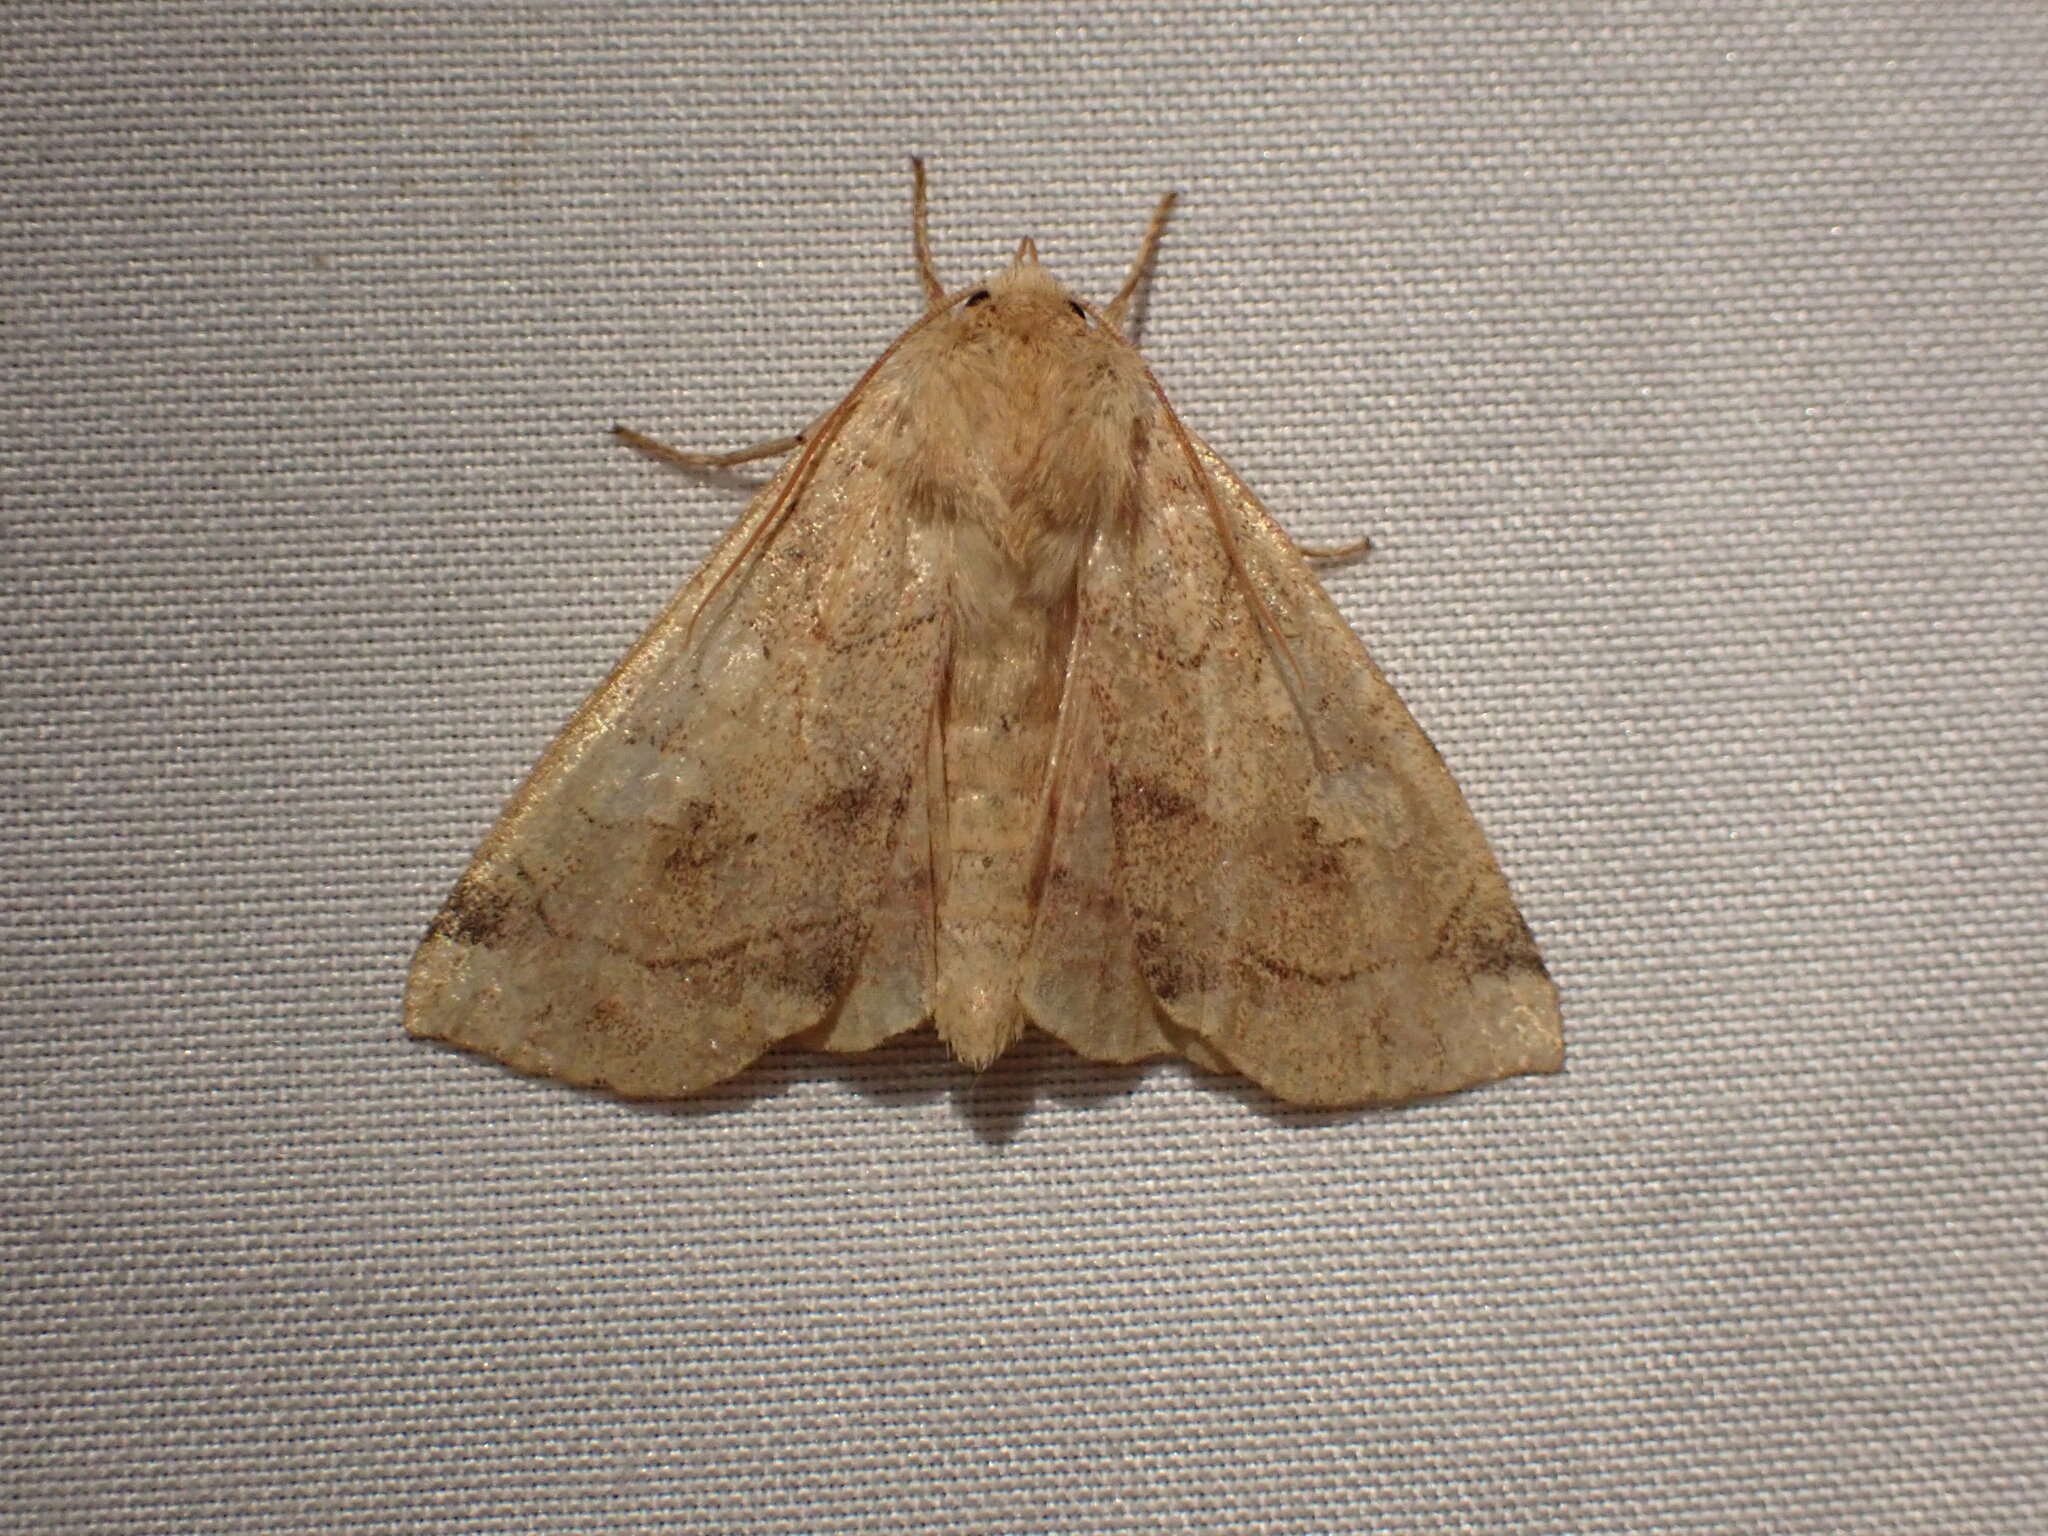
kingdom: Animalia
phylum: Arthropoda
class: Insecta
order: Lepidoptera
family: Noctuidae
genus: Enargia
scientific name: Enargia decolor
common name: Aspen twoleaf tier moth
